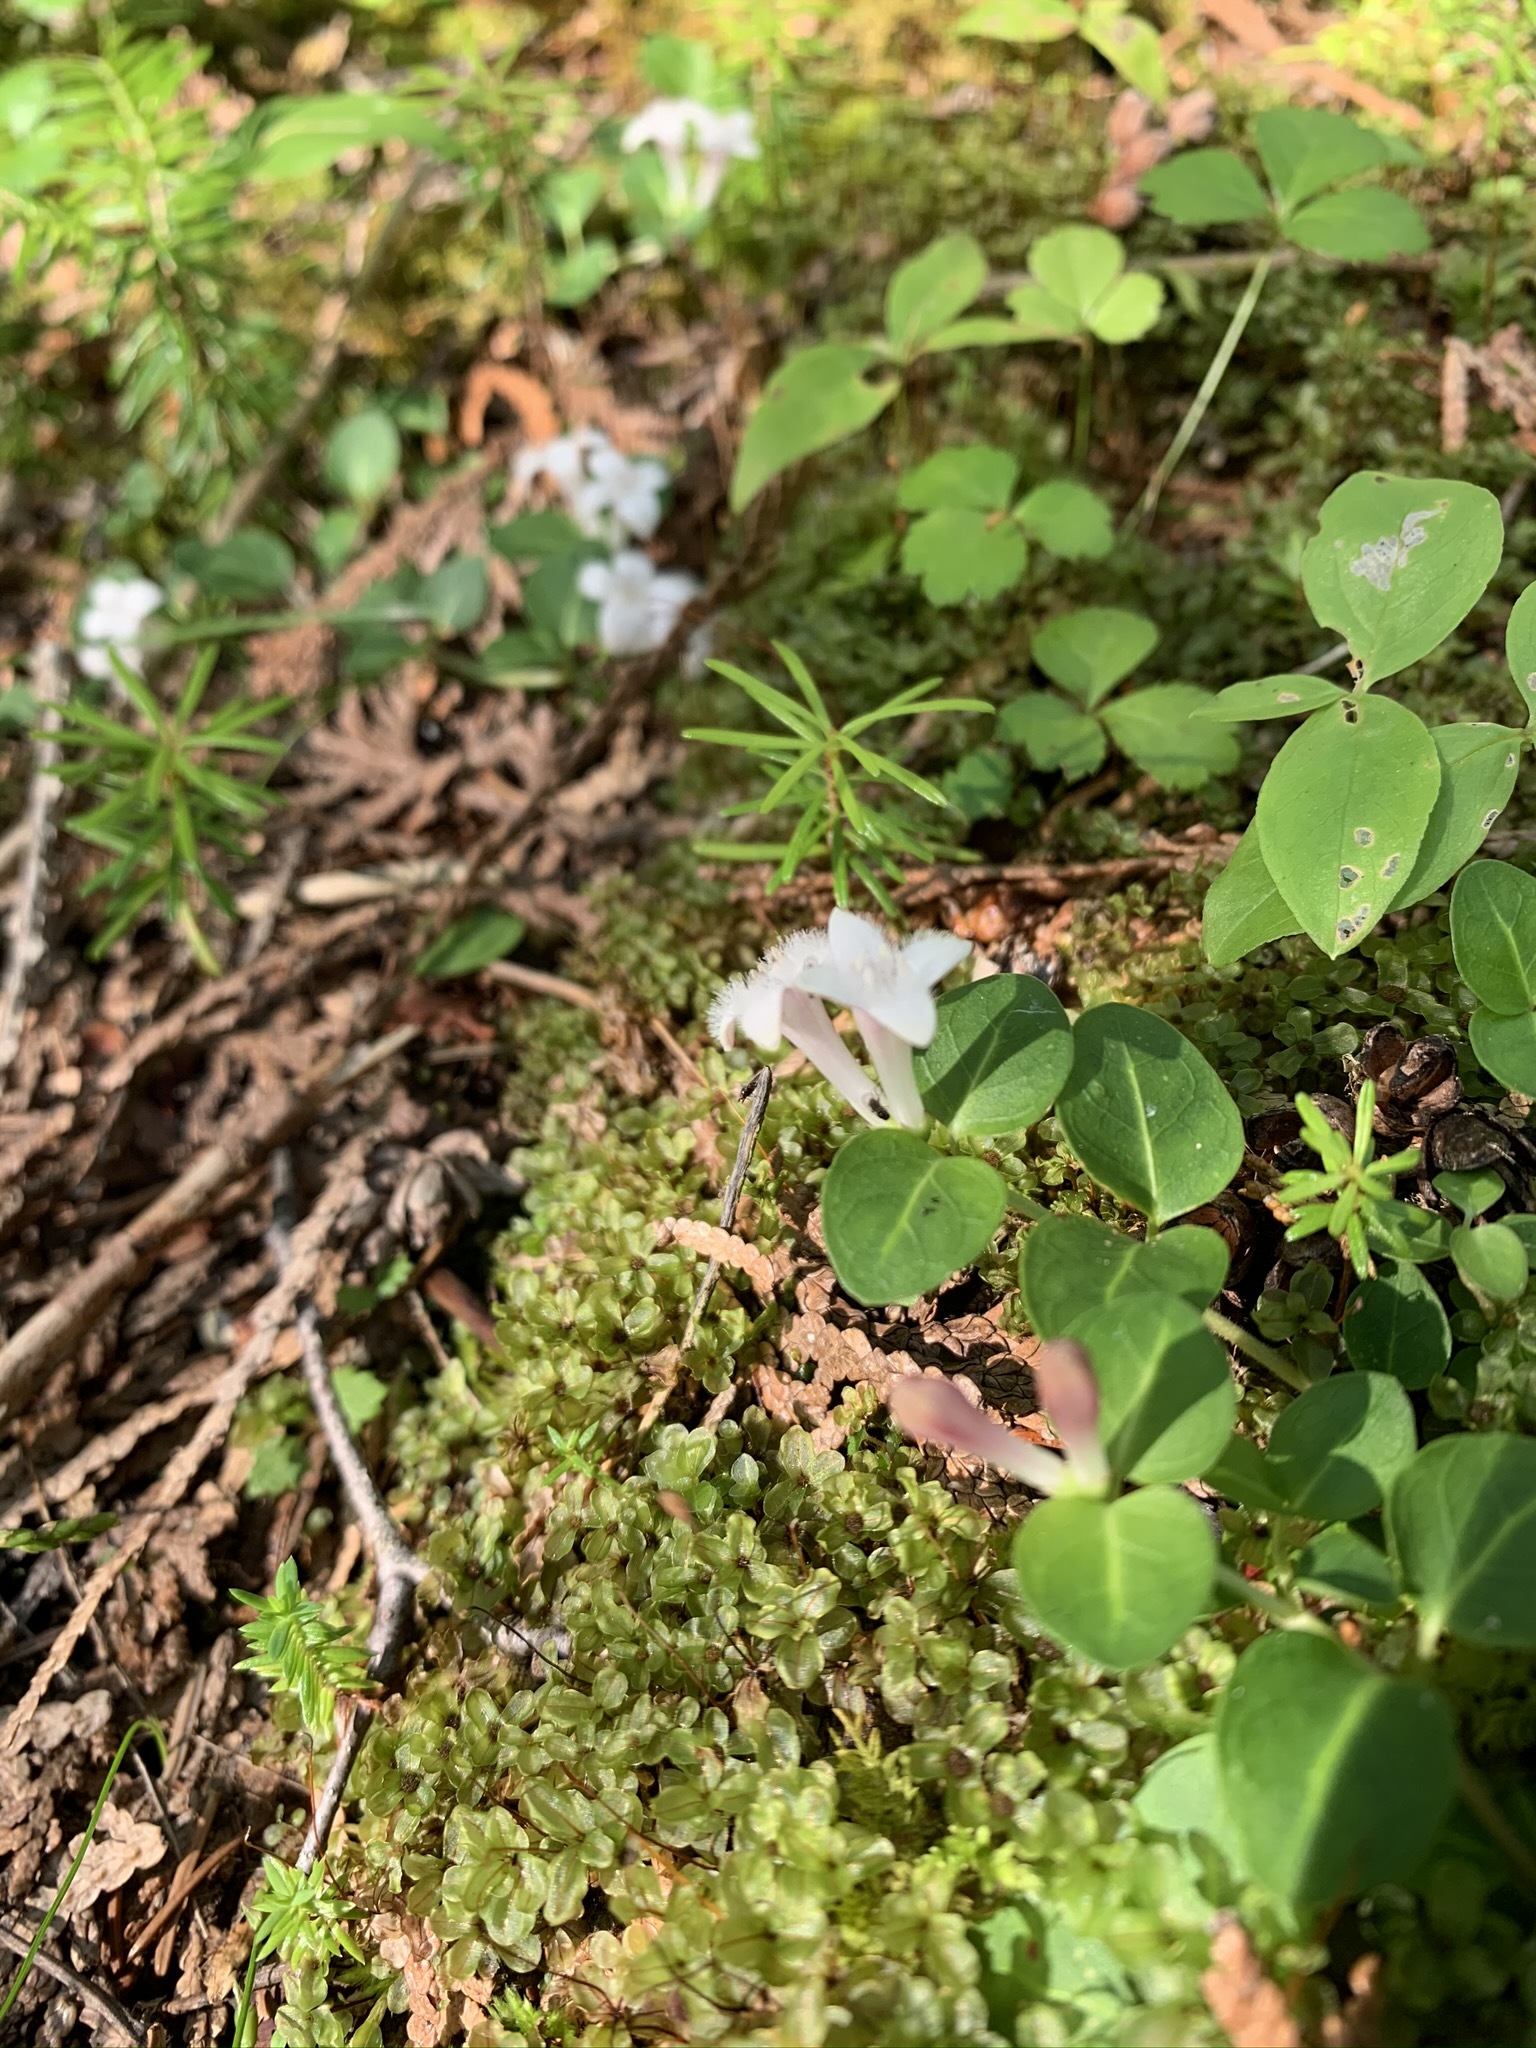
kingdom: Plantae
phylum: Tracheophyta
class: Magnoliopsida
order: Gentianales
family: Rubiaceae
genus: Mitchella
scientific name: Mitchella repens
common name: Partridge-berry
